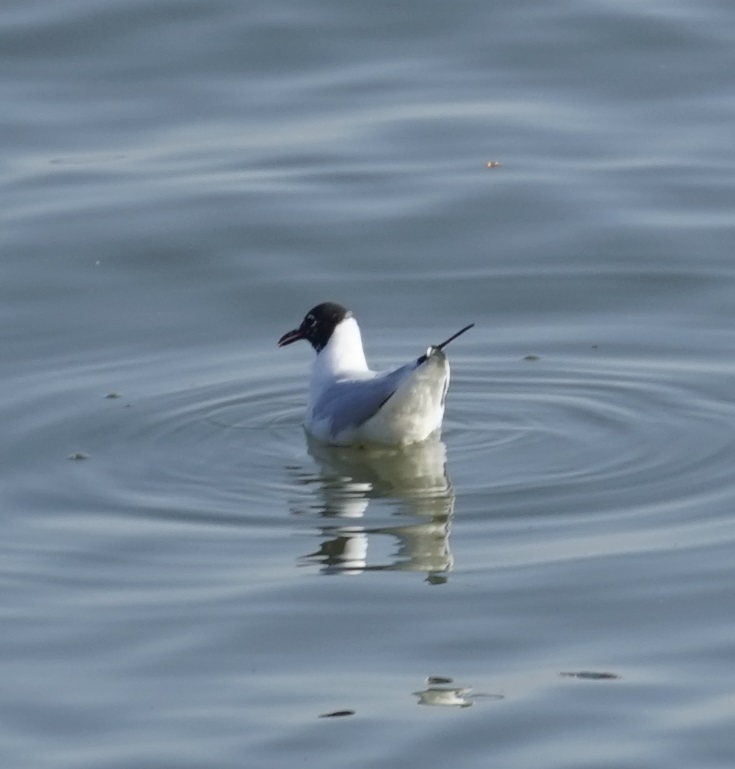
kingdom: Animalia
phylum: Chordata
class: Aves
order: Charadriiformes
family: Laridae
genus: Chroicocephalus
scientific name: Chroicocephalus ridibundus
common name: Black-headed gull
